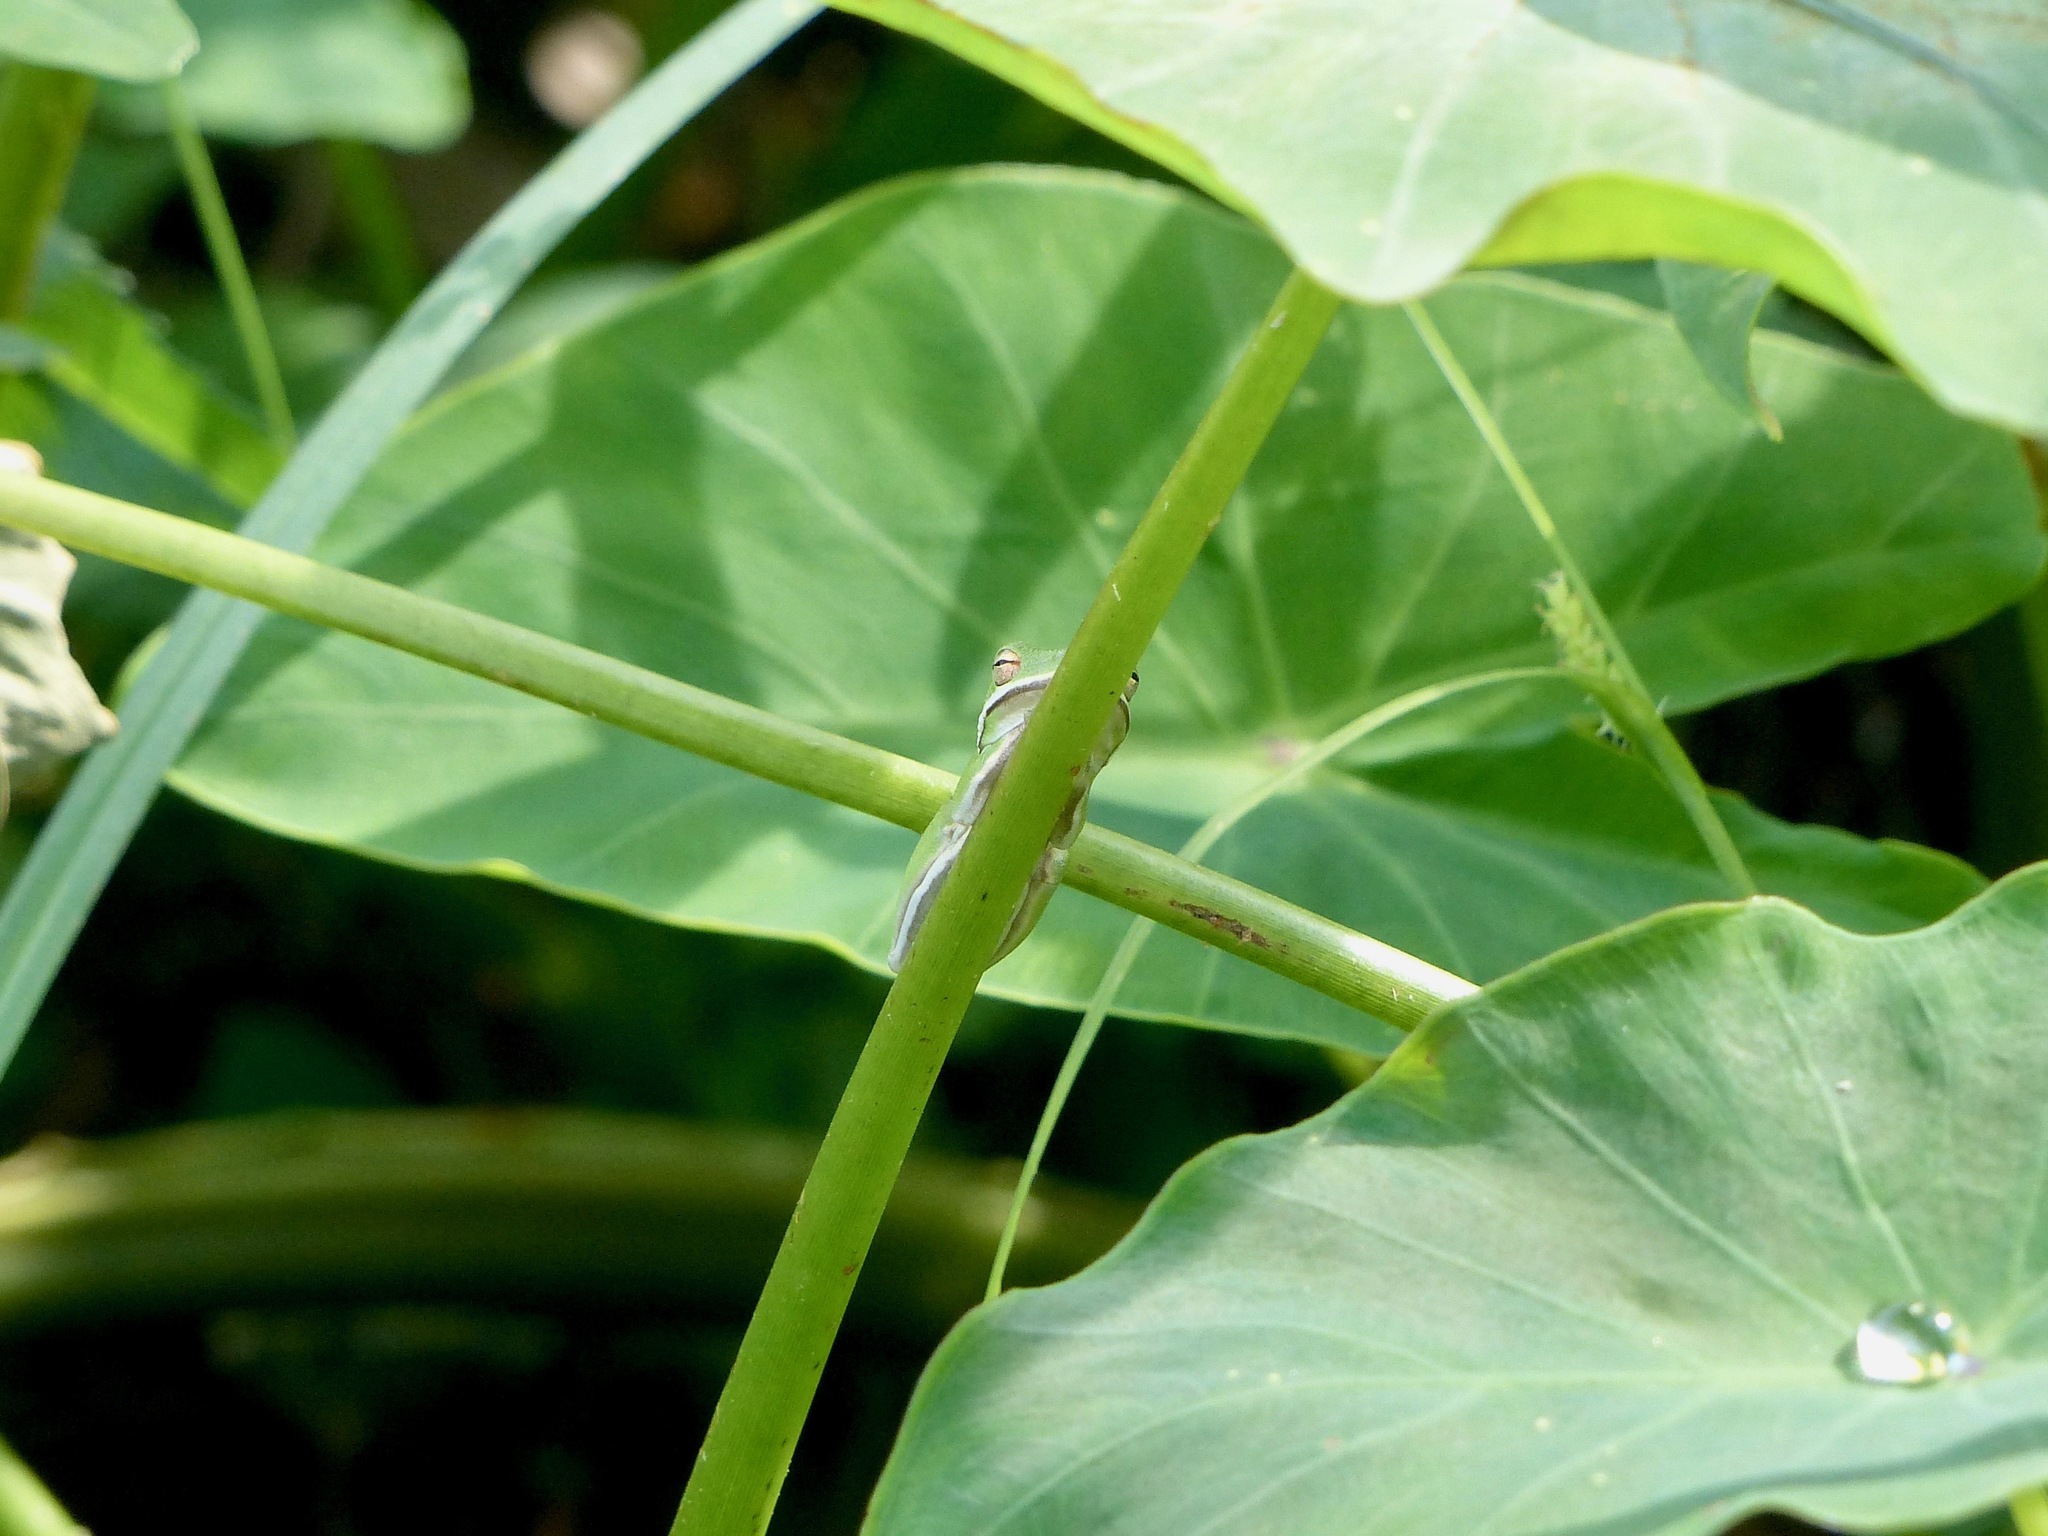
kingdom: Animalia
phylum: Chordata
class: Amphibia
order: Anura
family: Hylidae
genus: Dryophytes
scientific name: Dryophytes cinereus
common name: Green treefrog
